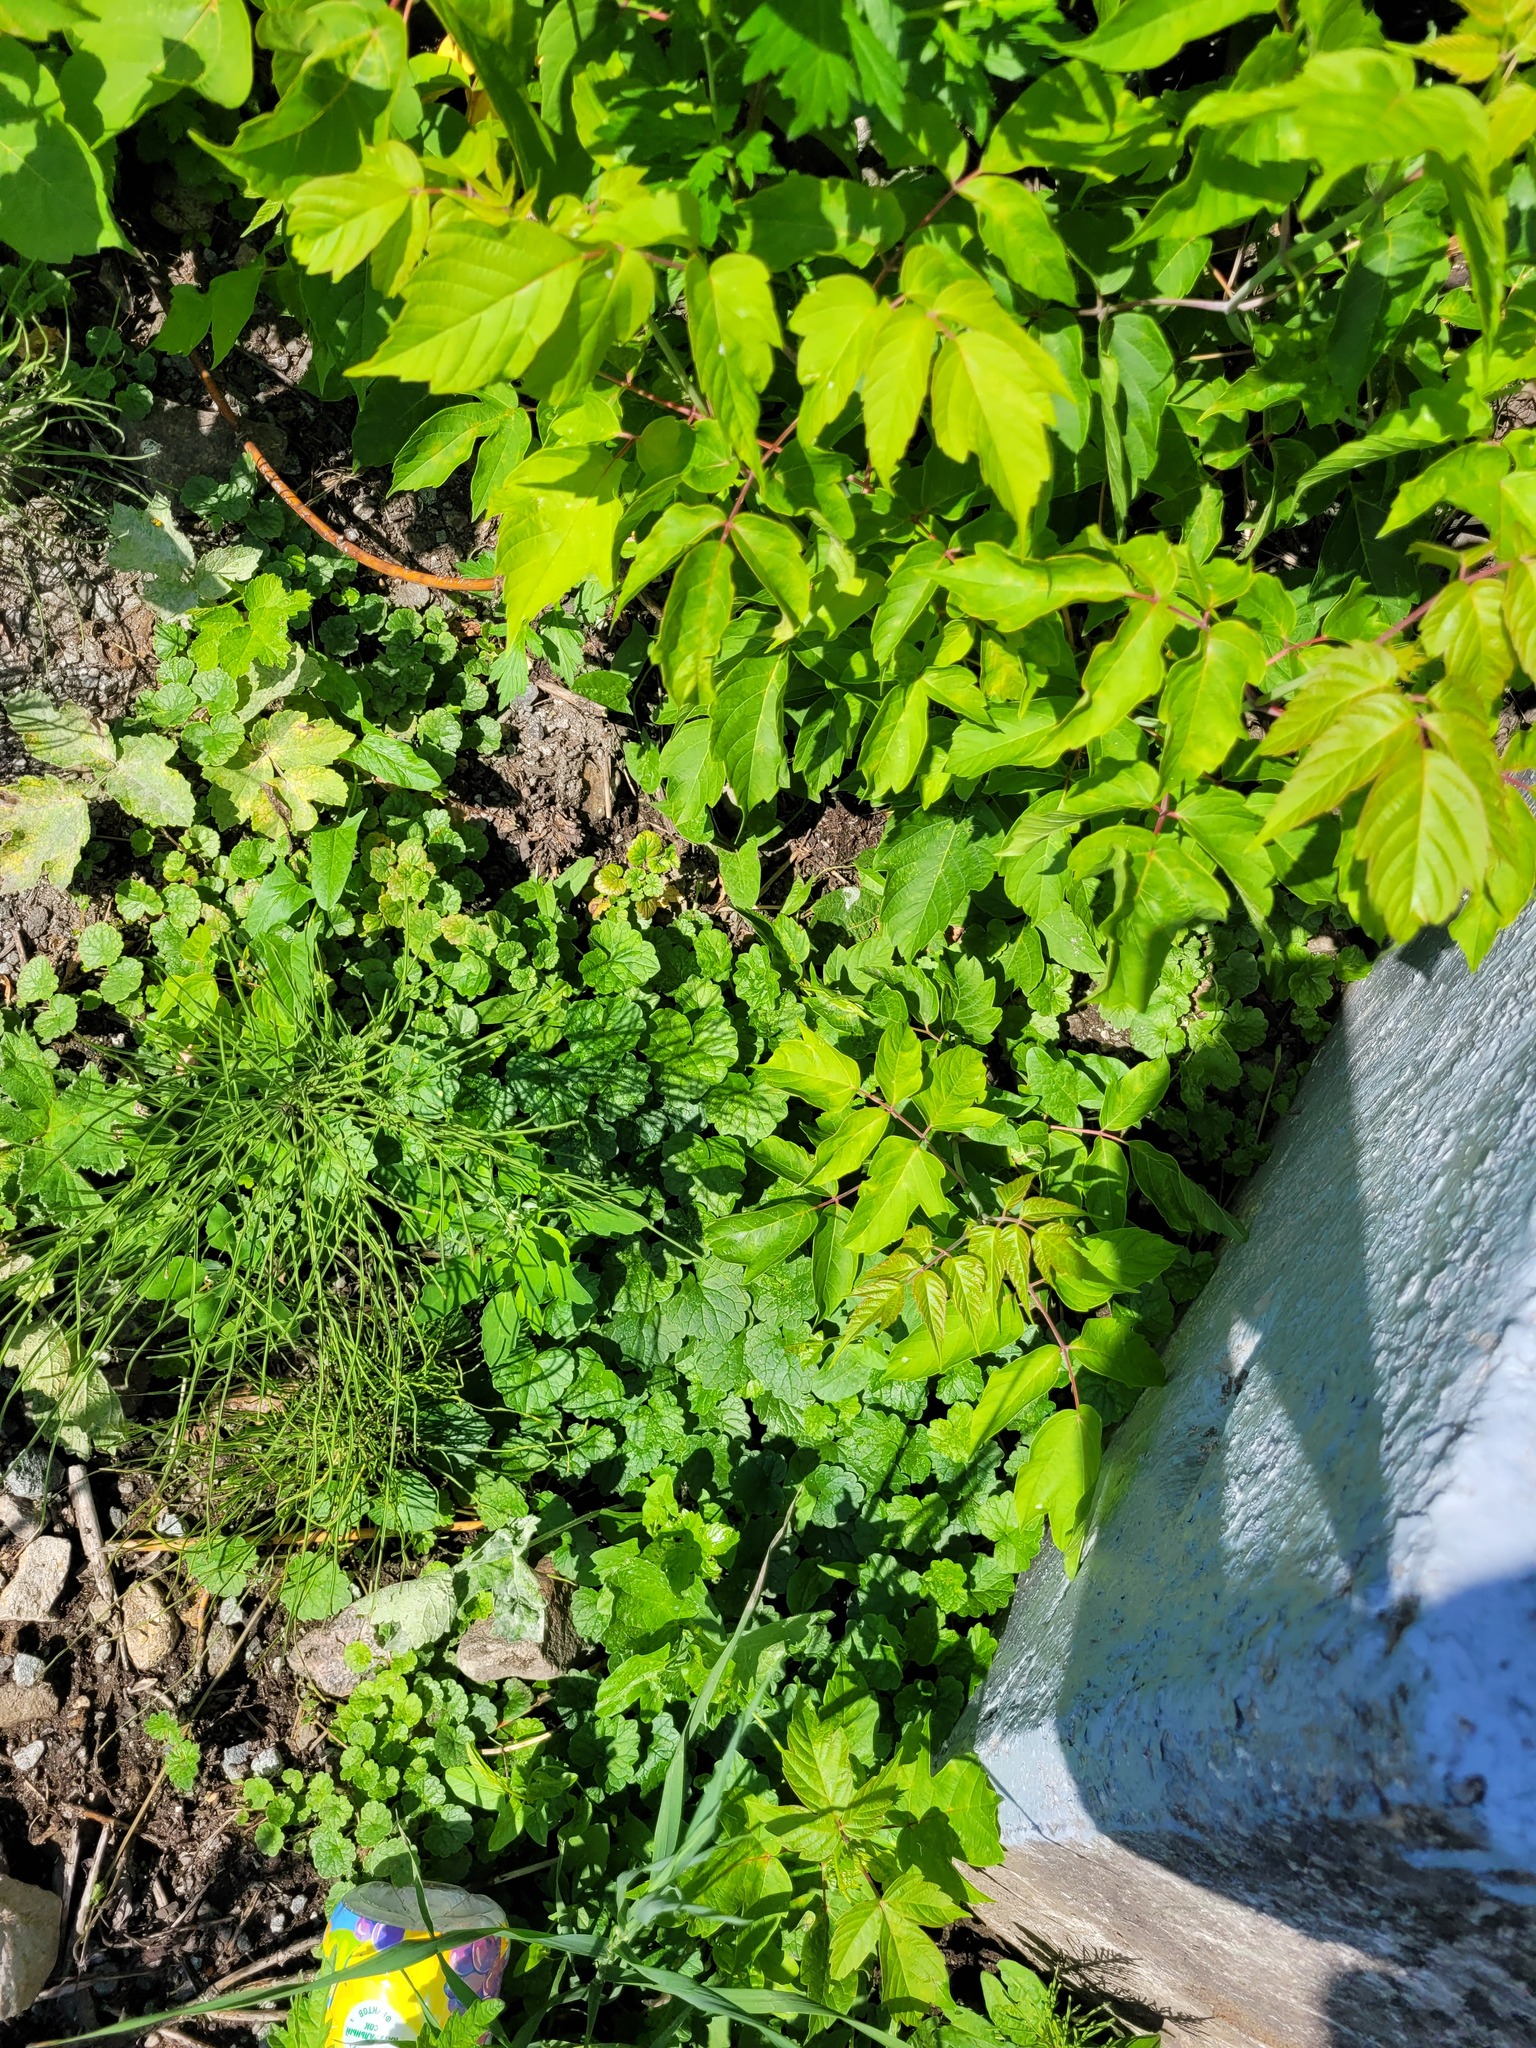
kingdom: Plantae
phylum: Tracheophyta
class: Magnoliopsida
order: Sapindales
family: Sapindaceae
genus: Acer
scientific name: Acer negundo
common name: Ashleaf maple
